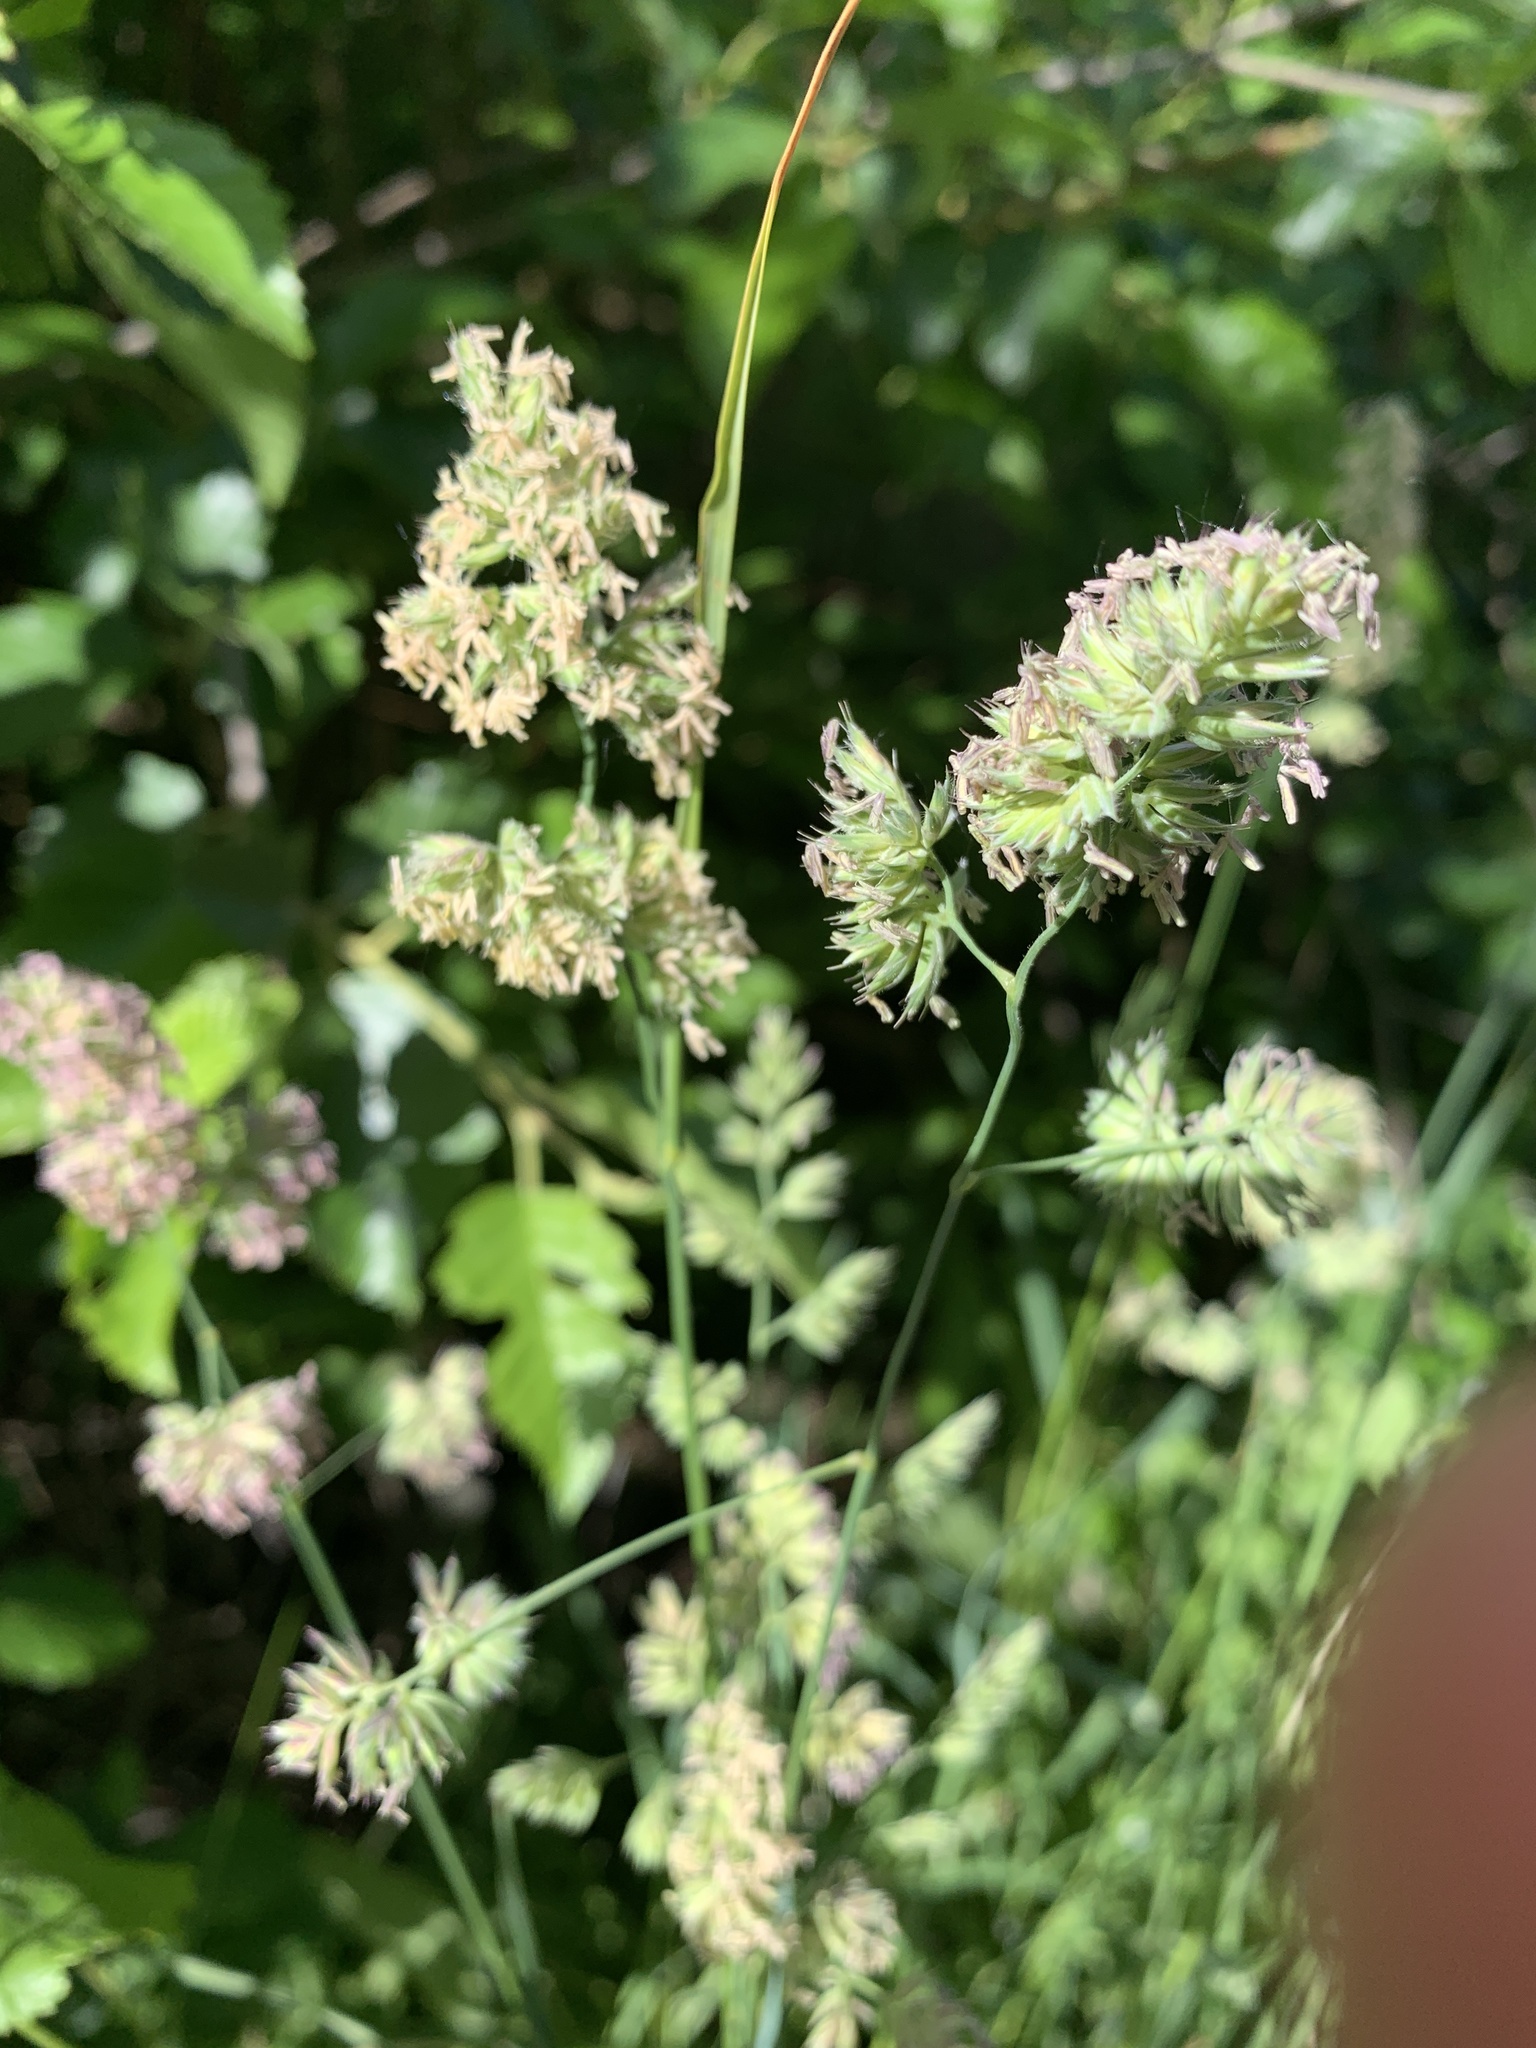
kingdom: Plantae
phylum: Tracheophyta
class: Liliopsida
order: Poales
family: Poaceae
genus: Dactylis
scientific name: Dactylis glomerata
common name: Orchardgrass
